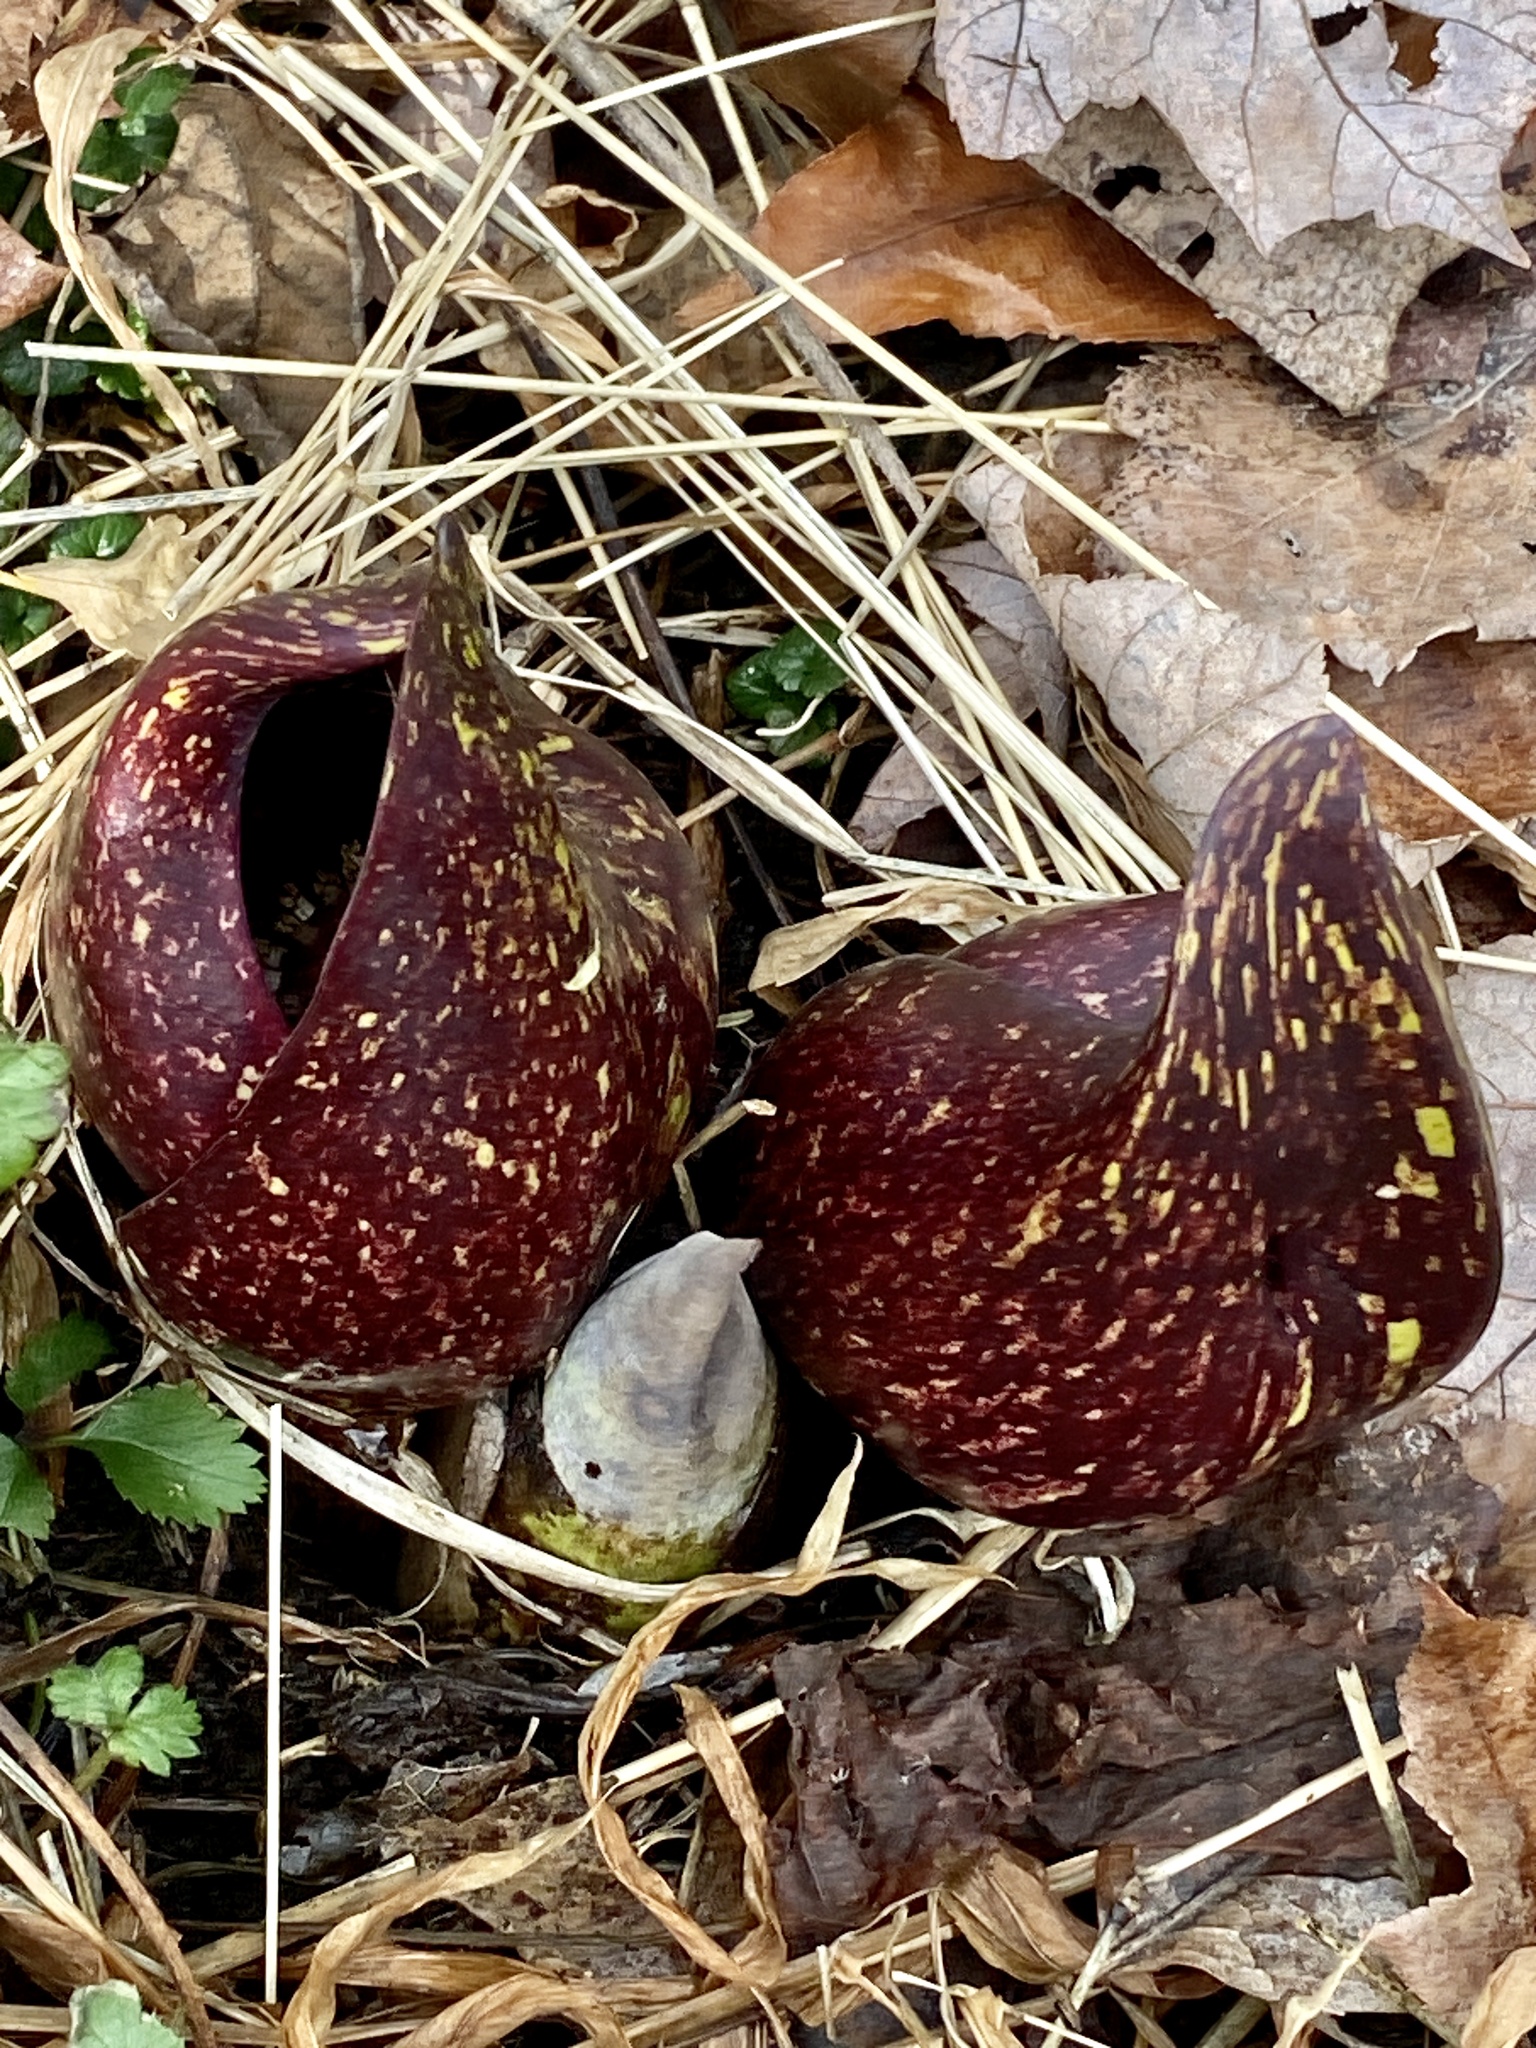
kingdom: Plantae
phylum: Tracheophyta
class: Liliopsida
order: Alismatales
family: Araceae
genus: Symplocarpus
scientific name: Symplocarpus foetidus
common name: Eastern skunk cabbage
